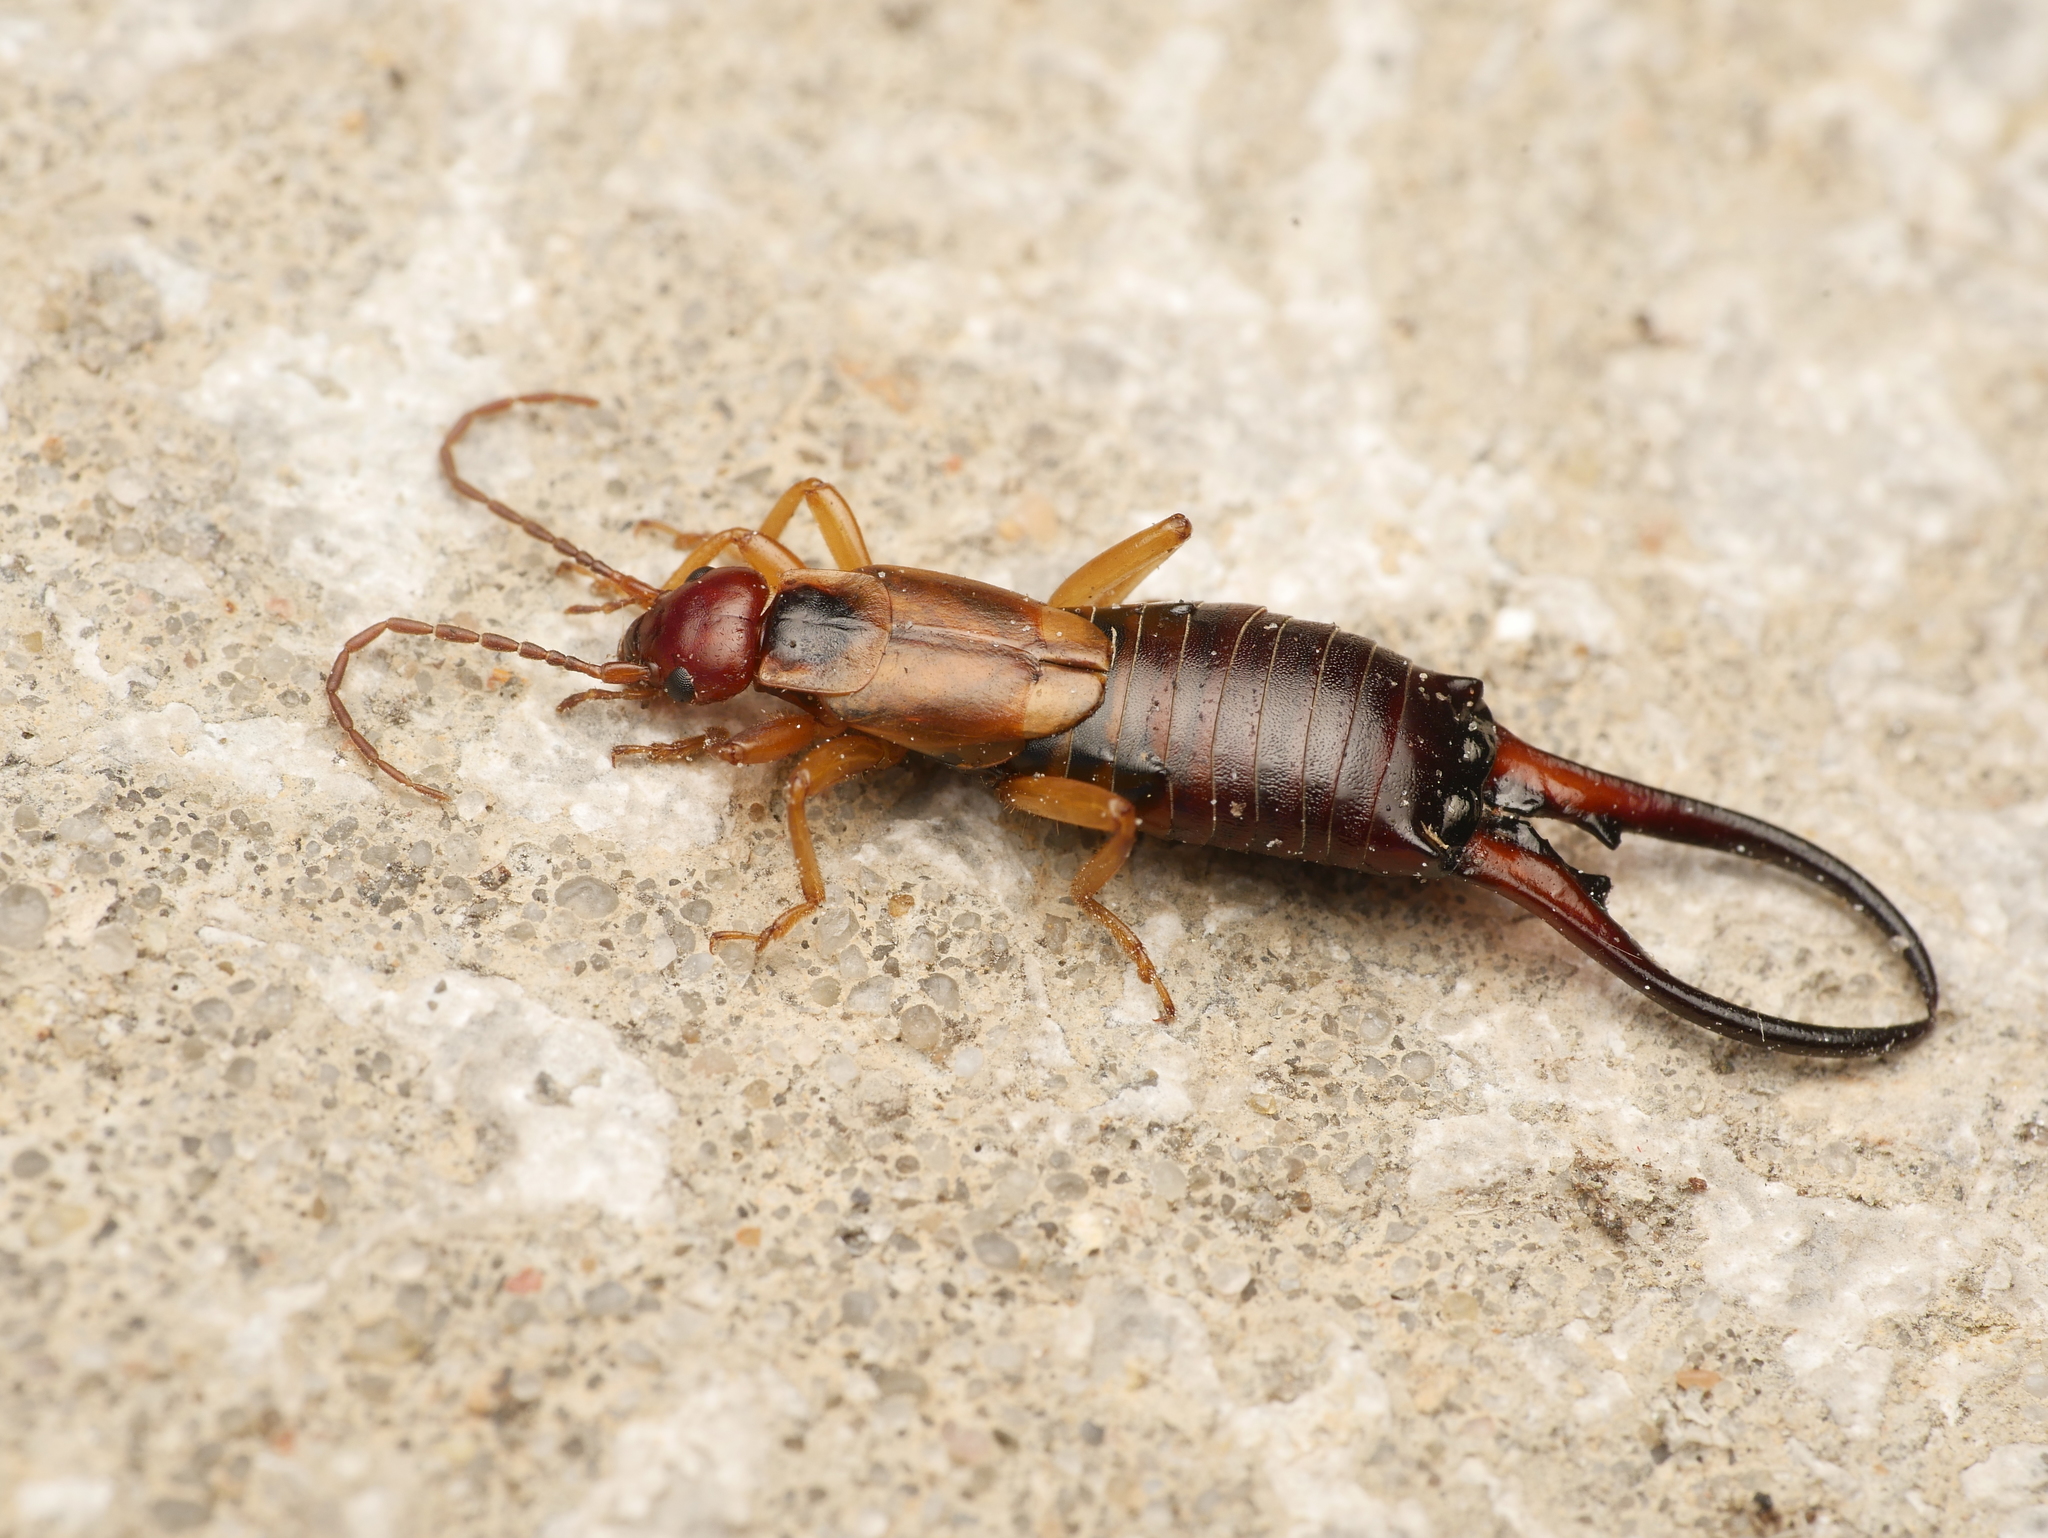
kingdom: Animalia
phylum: Arthropoda
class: Insecta
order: Dermaptera
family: Forficulidae
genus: Forficula
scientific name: Forficula
